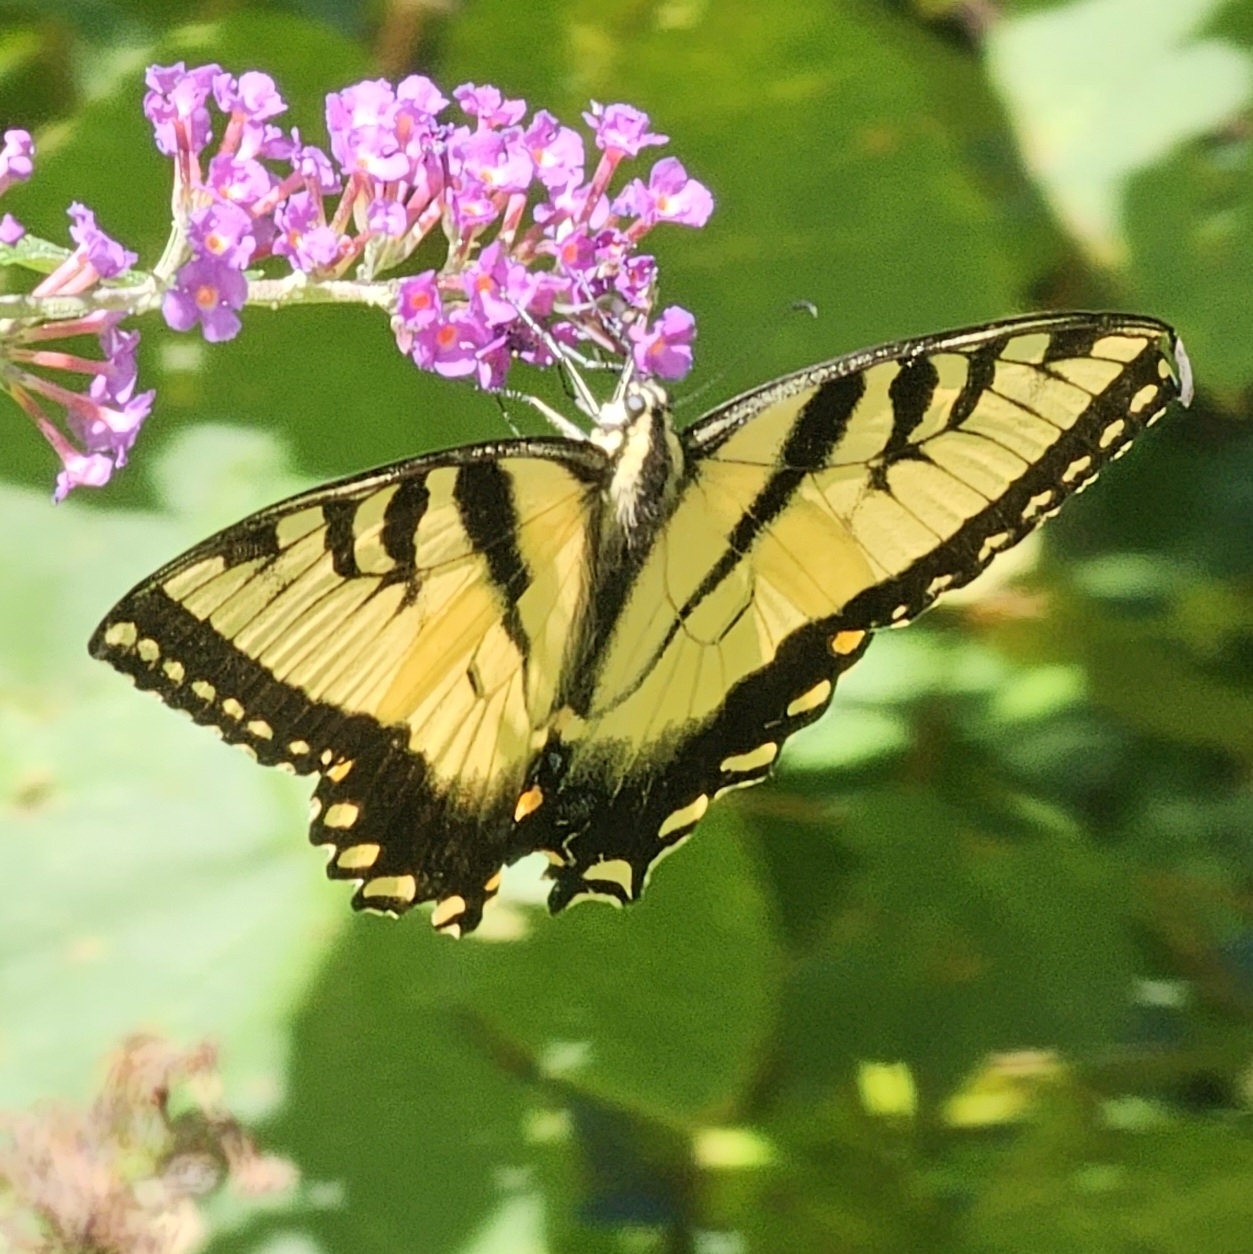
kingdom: Animalia
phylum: Arthropoda
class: Insecta
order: Lepidoptera
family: Papilionidae
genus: Papilio
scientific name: Papilio glaucus
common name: Tiger swallowtail
